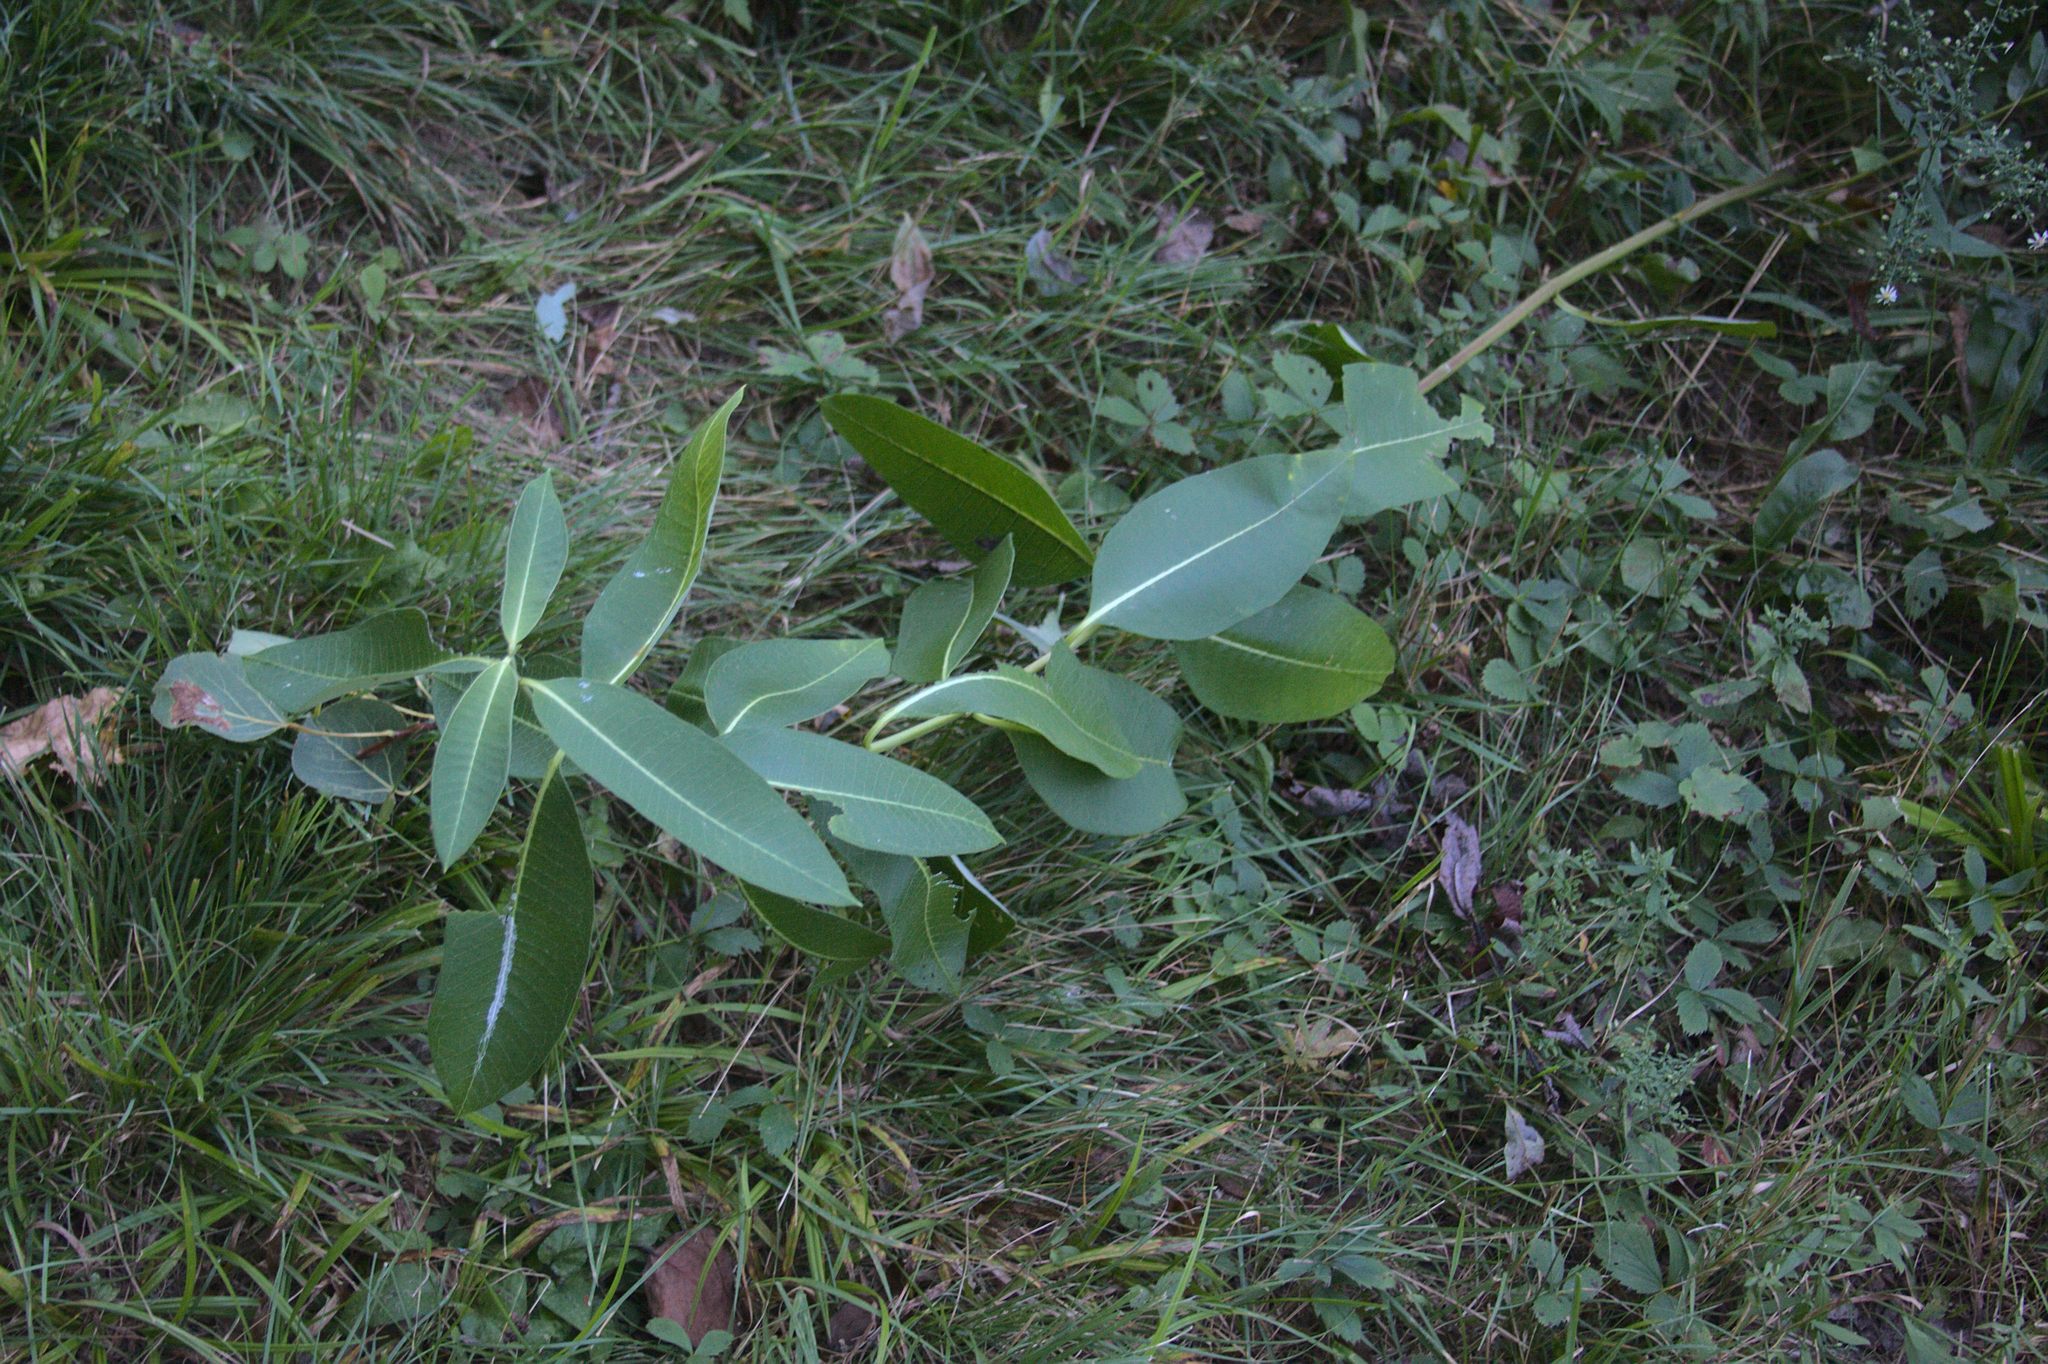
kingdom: Plantae
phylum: Tracheophyta
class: Magnoliopsida
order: Gentianales
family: Apocynaceae
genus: Asclepias
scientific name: Asclepias syriaca
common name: Common milkweed
